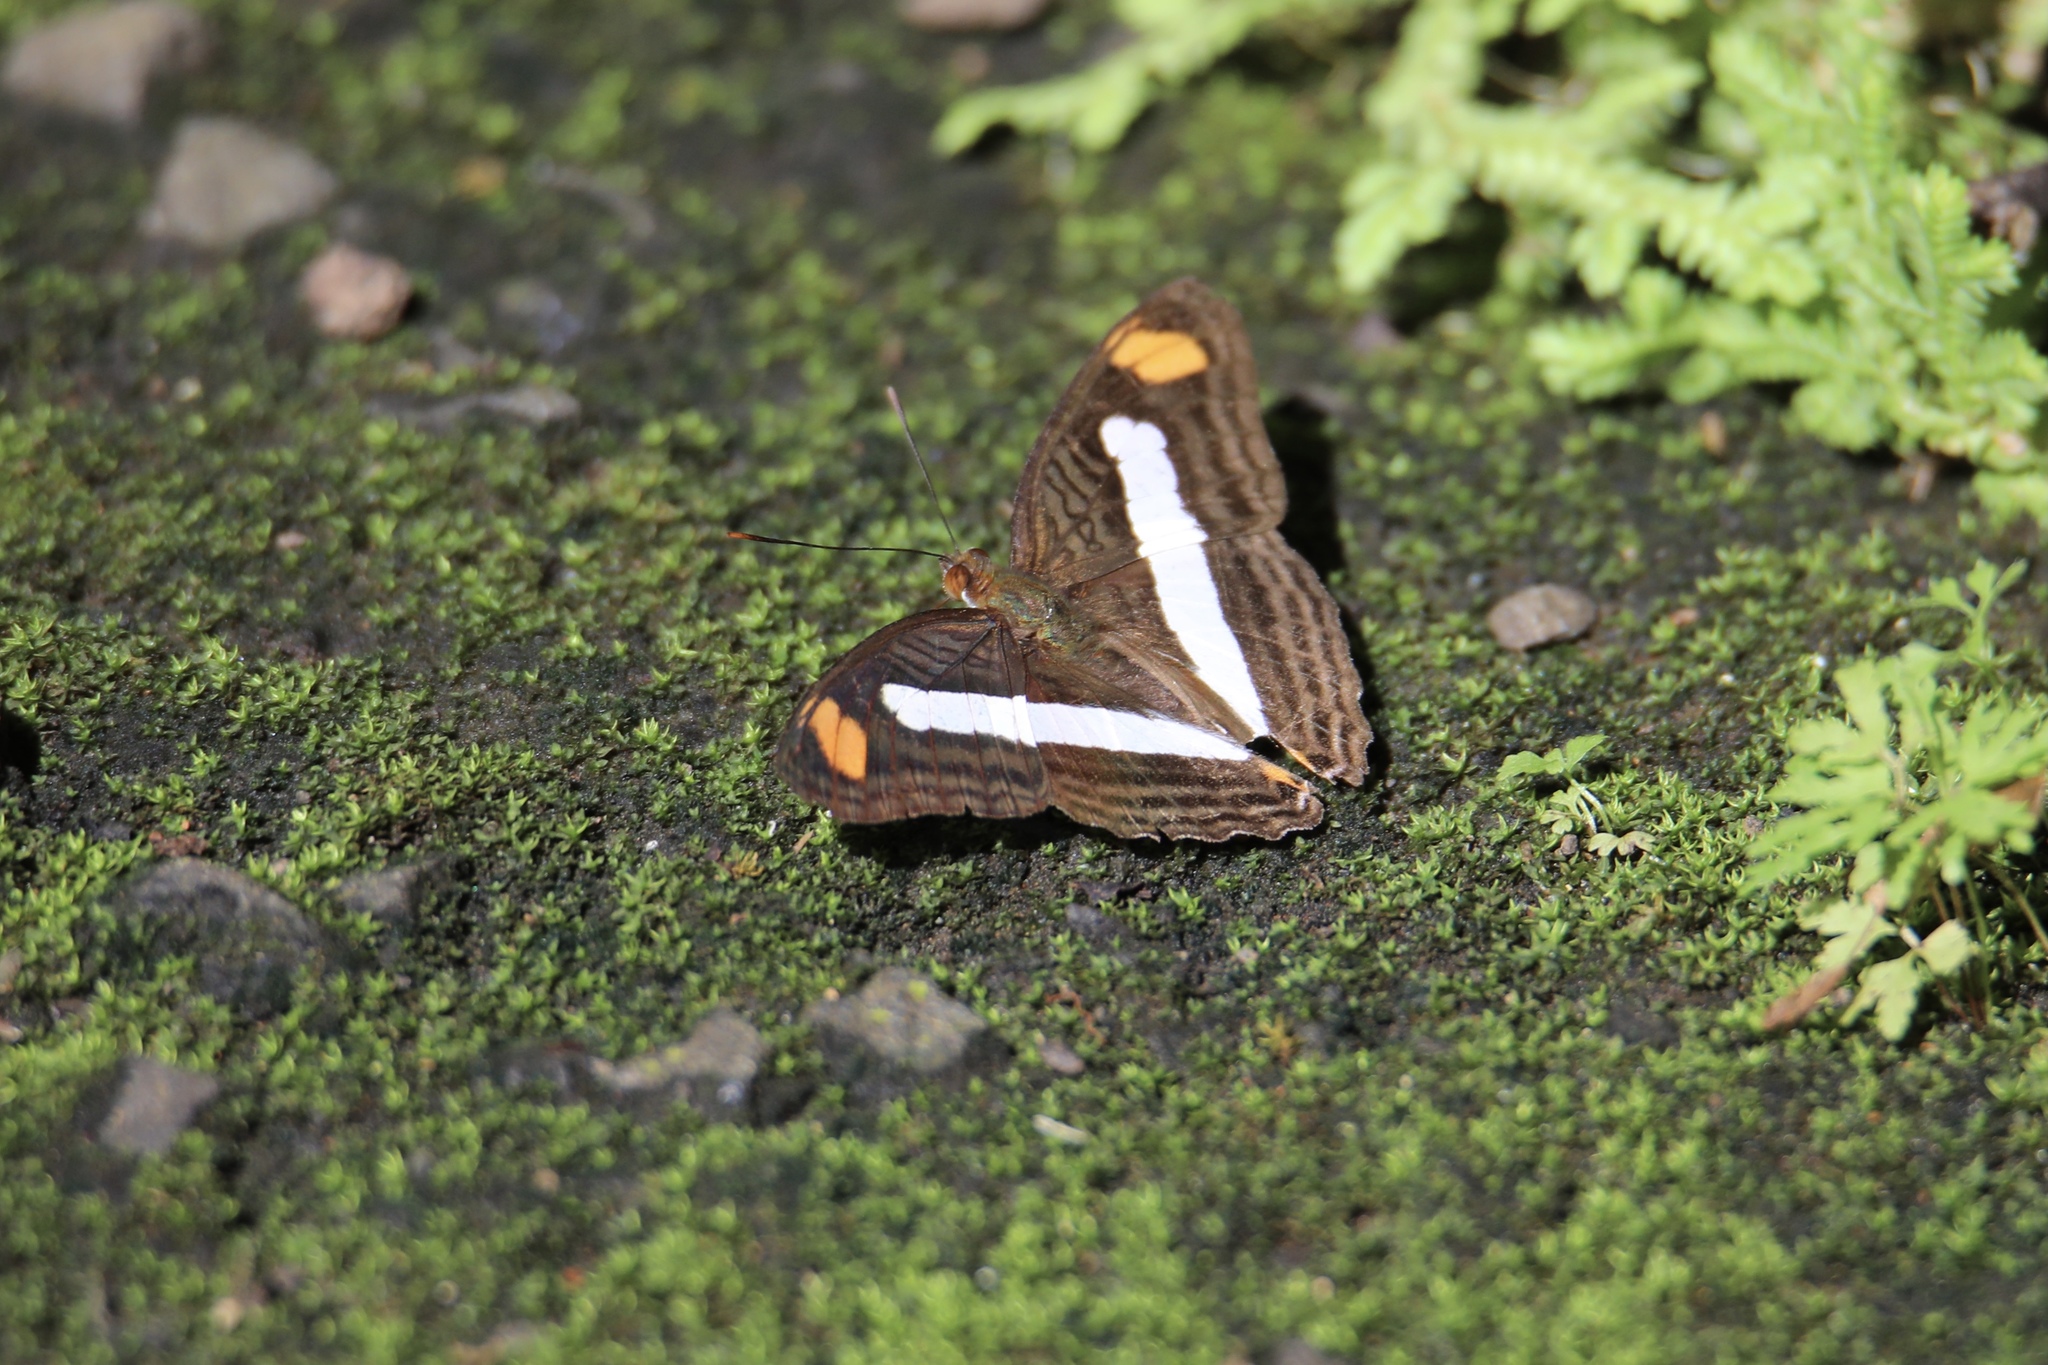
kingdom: Animalia
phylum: Arthropoda
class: Insecta
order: Lepidoptera
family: Nymphalidae
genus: Limenitis
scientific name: Limenitis Adelpha basiloides
